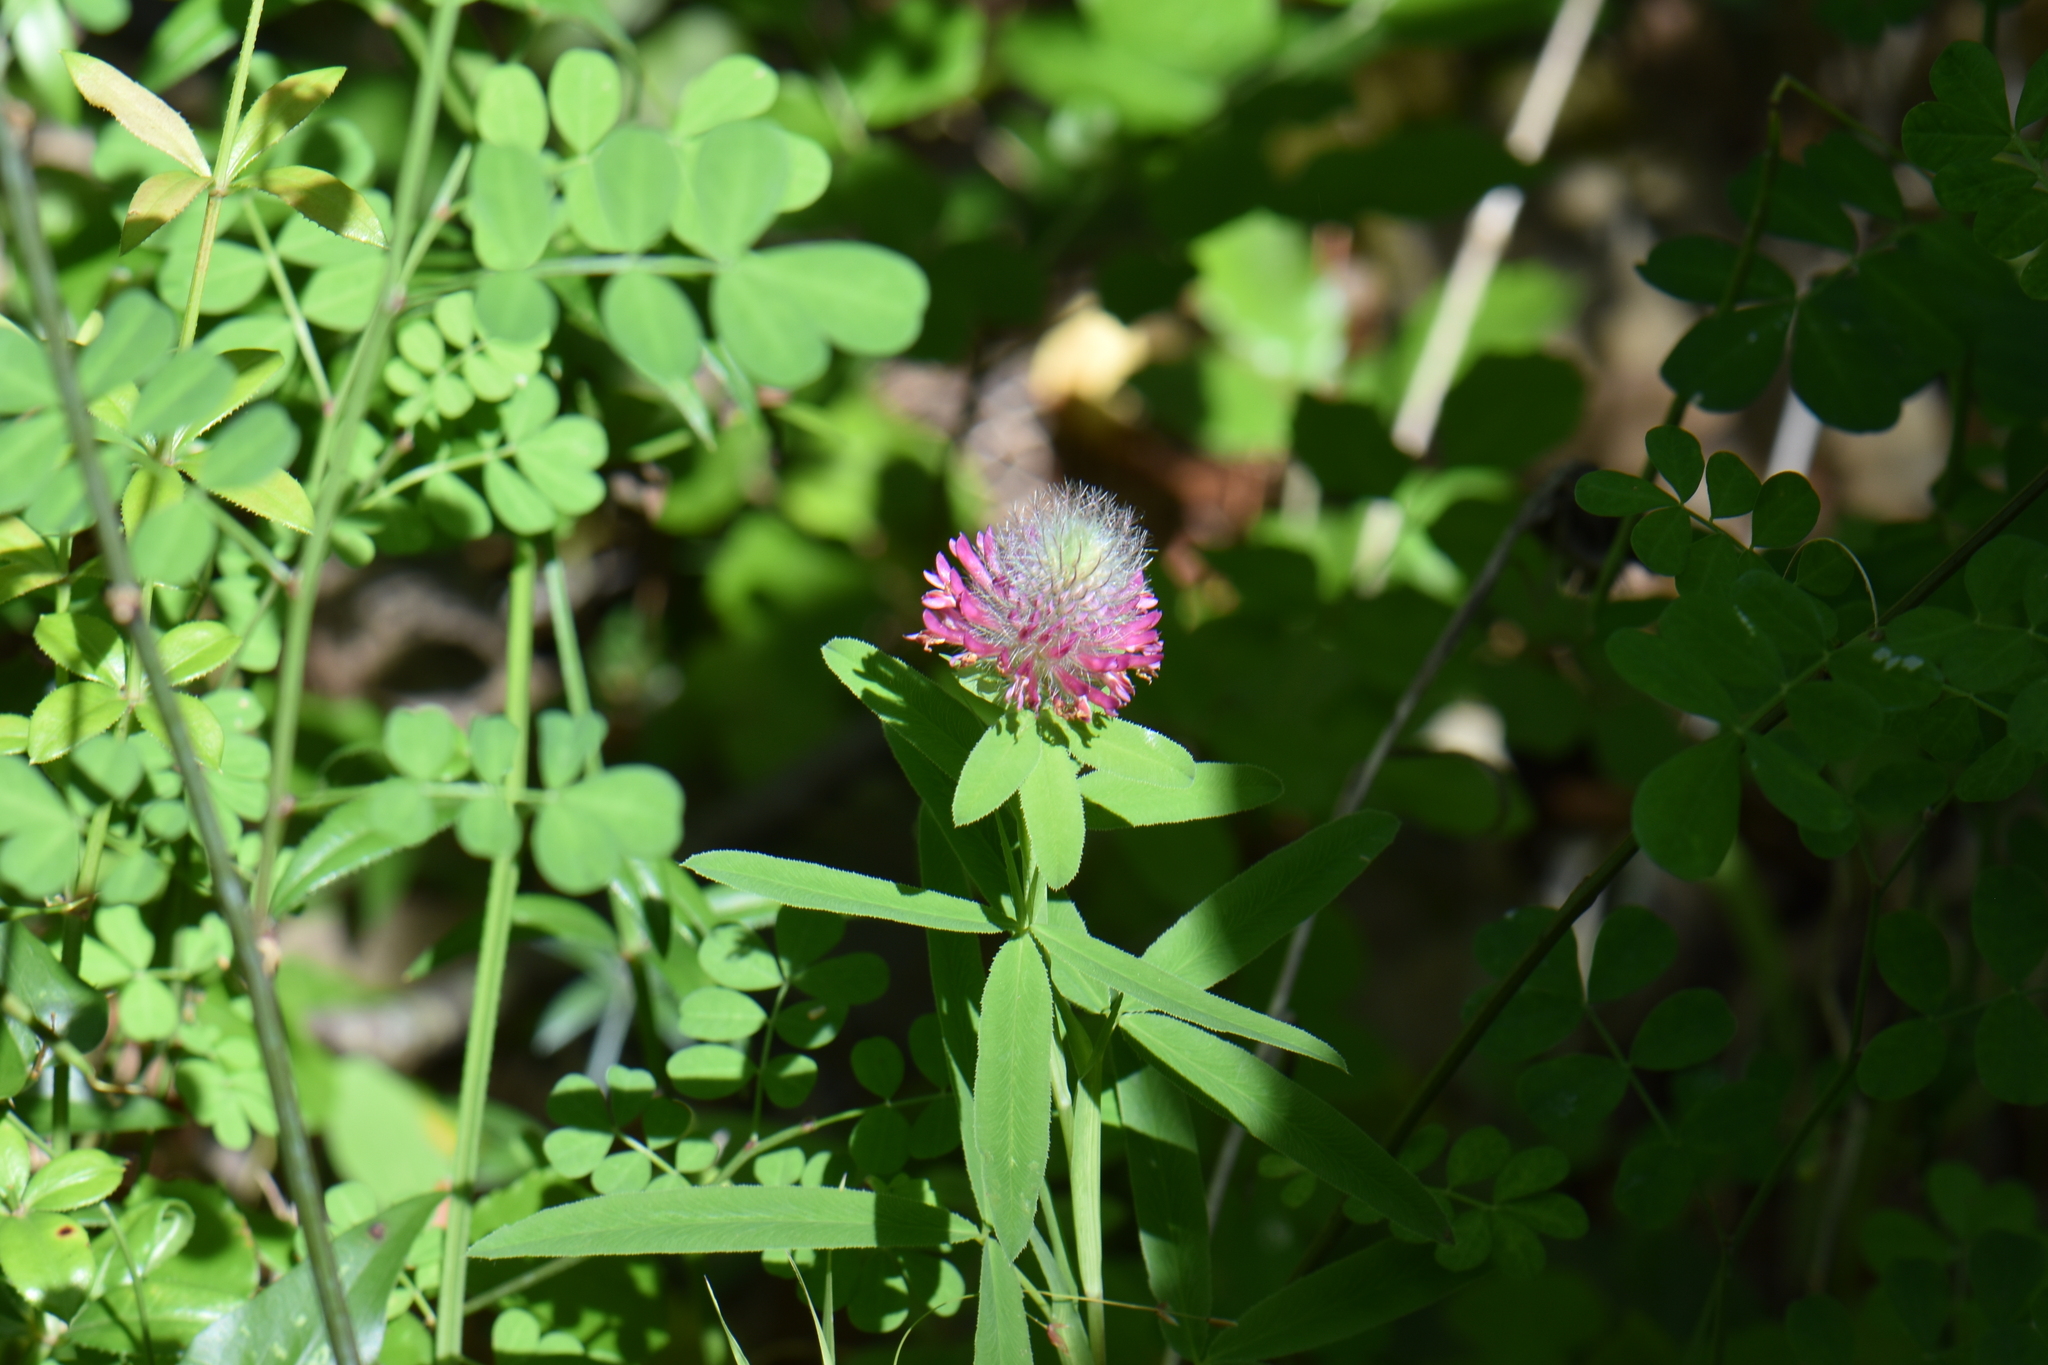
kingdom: Plantae
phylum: Tracheophyta
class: Magnoliopsida
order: Fabales
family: Fabaceae
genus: Trifolium
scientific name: Trifolium rubens
